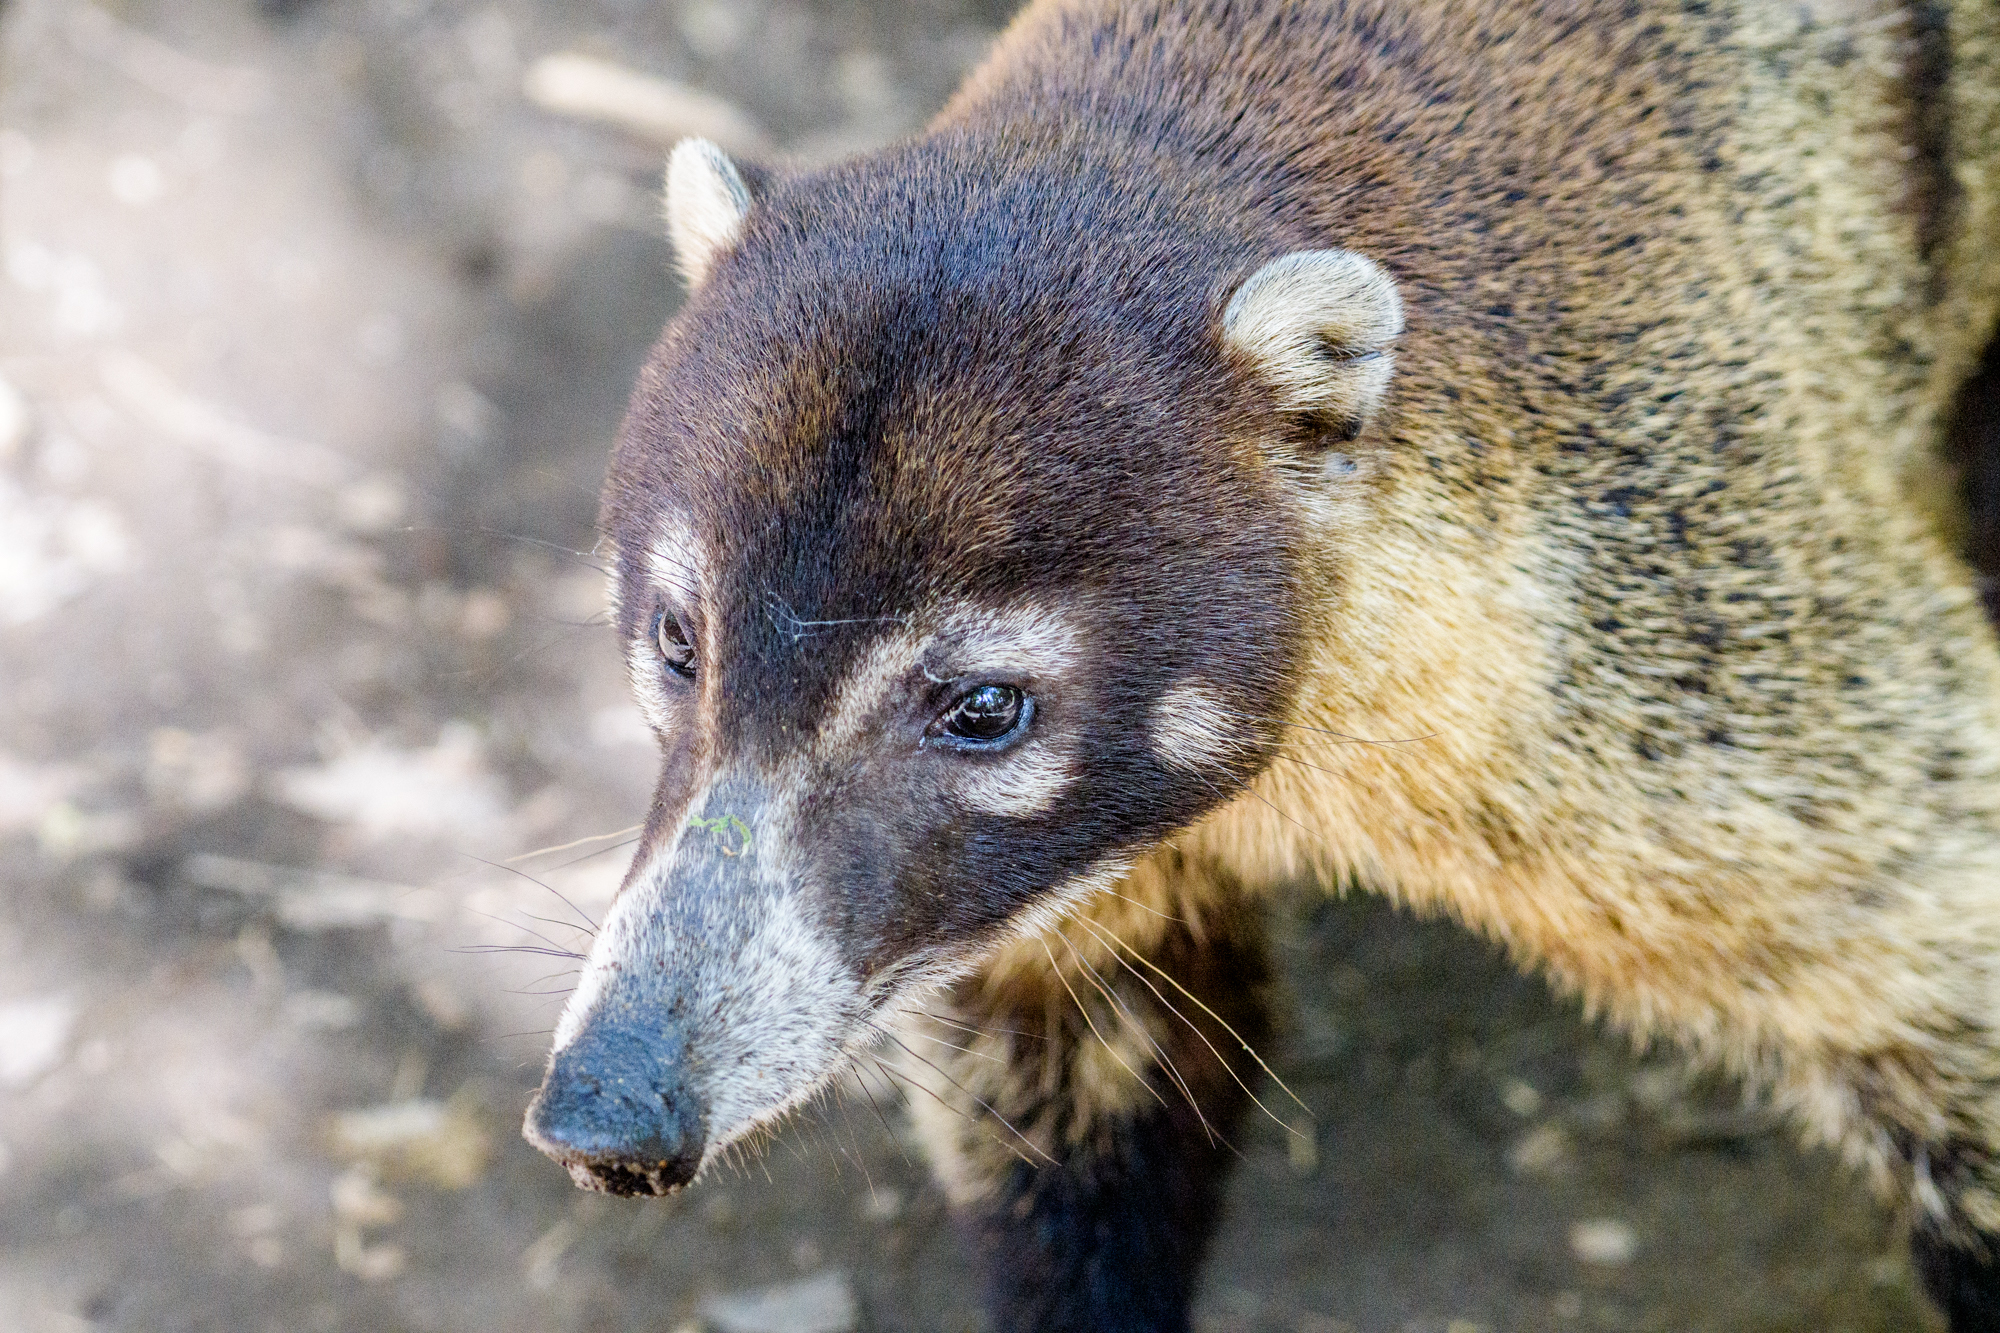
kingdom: Animalia
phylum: Chordata
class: Mammalia
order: Carnivora
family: Procyonidae
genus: Nasua
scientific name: Nasua narica
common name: White-nosed coati
